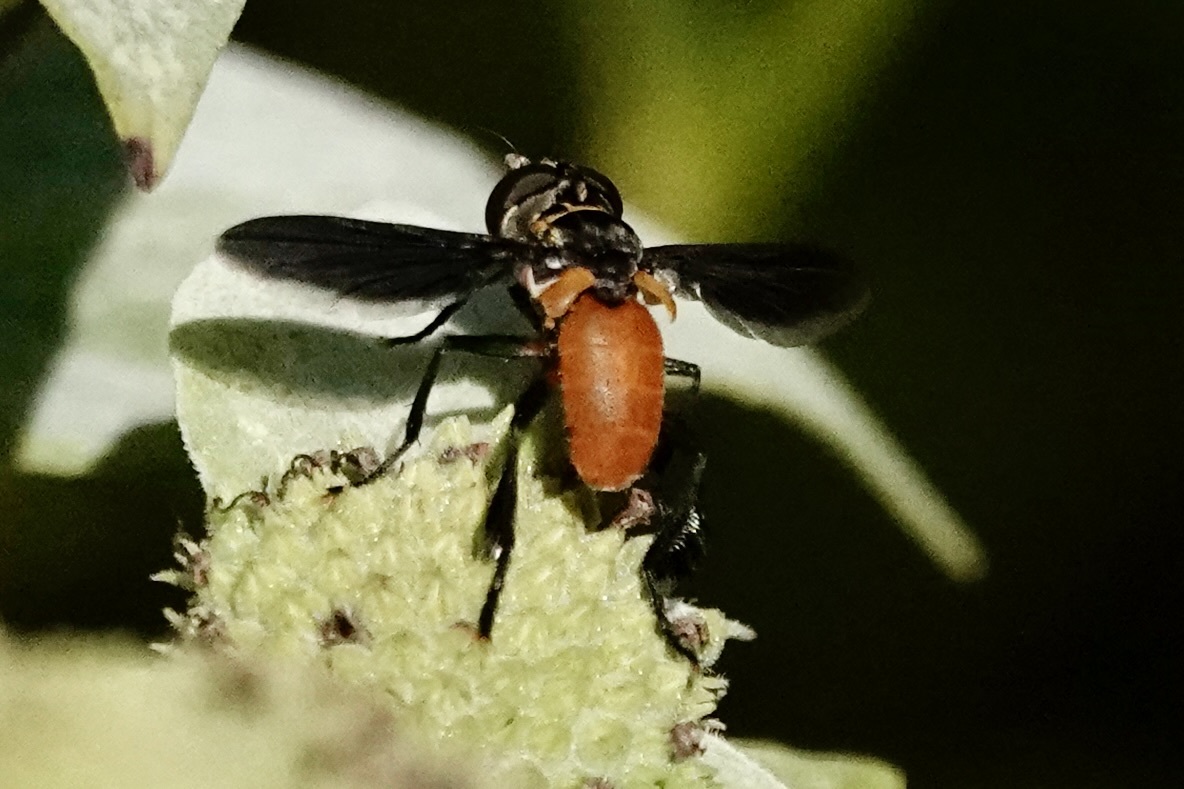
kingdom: Animalia
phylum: Arthropoda
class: Insecta
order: Diptera
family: Tachinidae
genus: Trichopoda
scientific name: Trichopoda pennipes
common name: Tachinid fly
